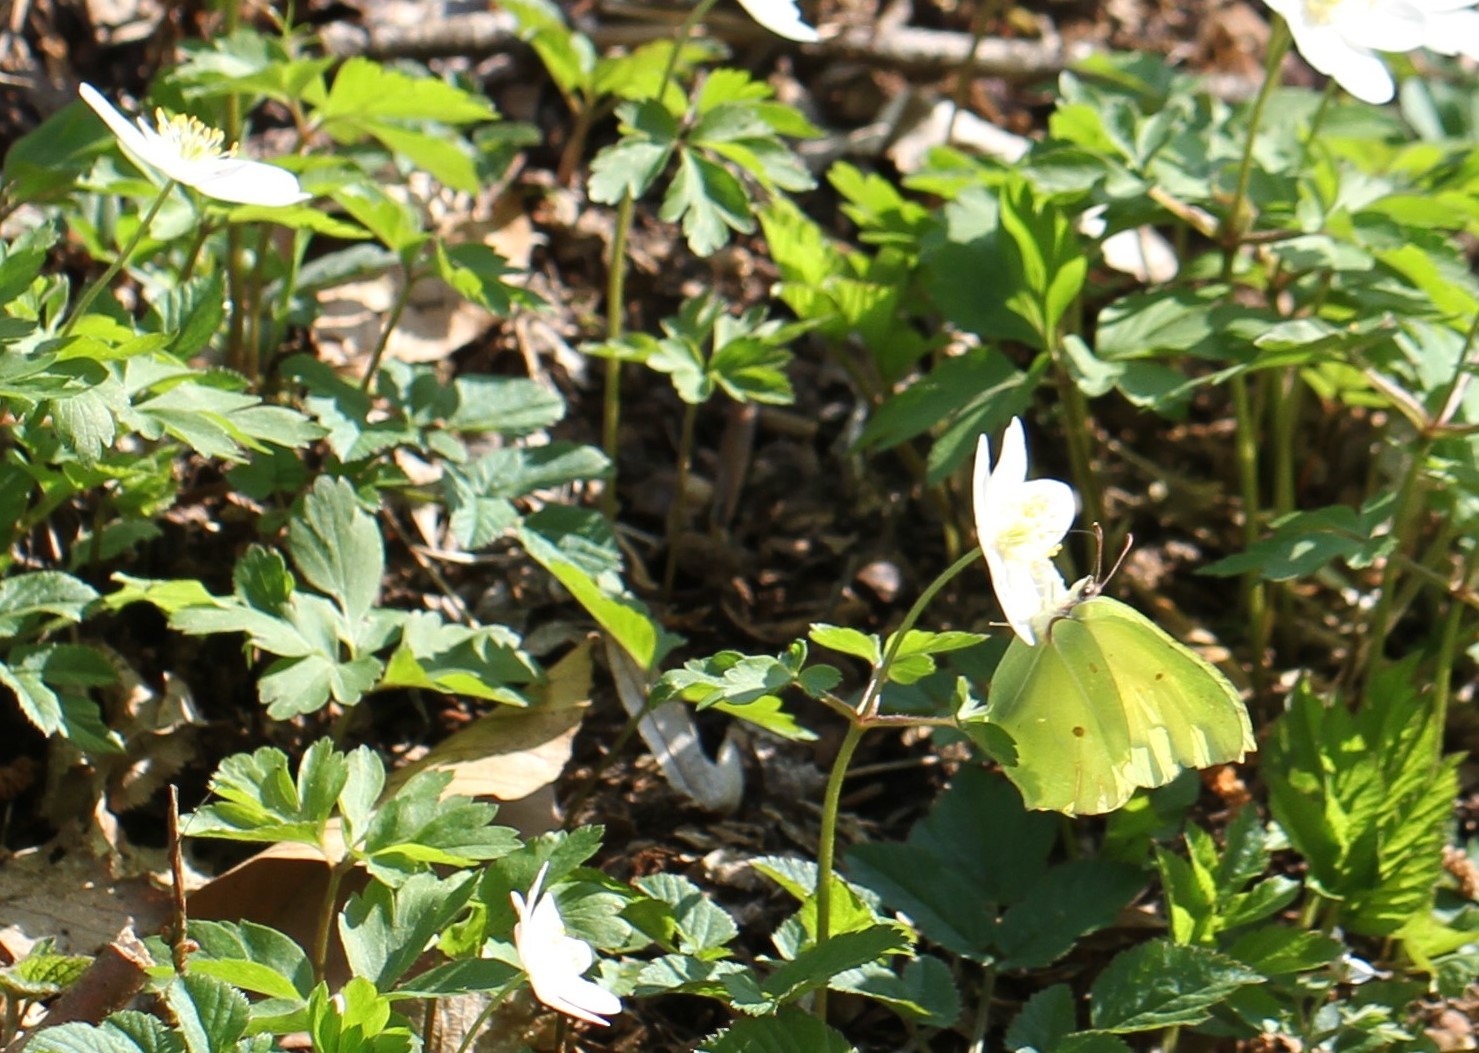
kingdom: Animalia
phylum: Arthropoda
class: Insecta
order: Lepidoptera
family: Pieridae
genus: Gonepteryx
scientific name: Gonepteryx rhamni
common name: Brimstone
